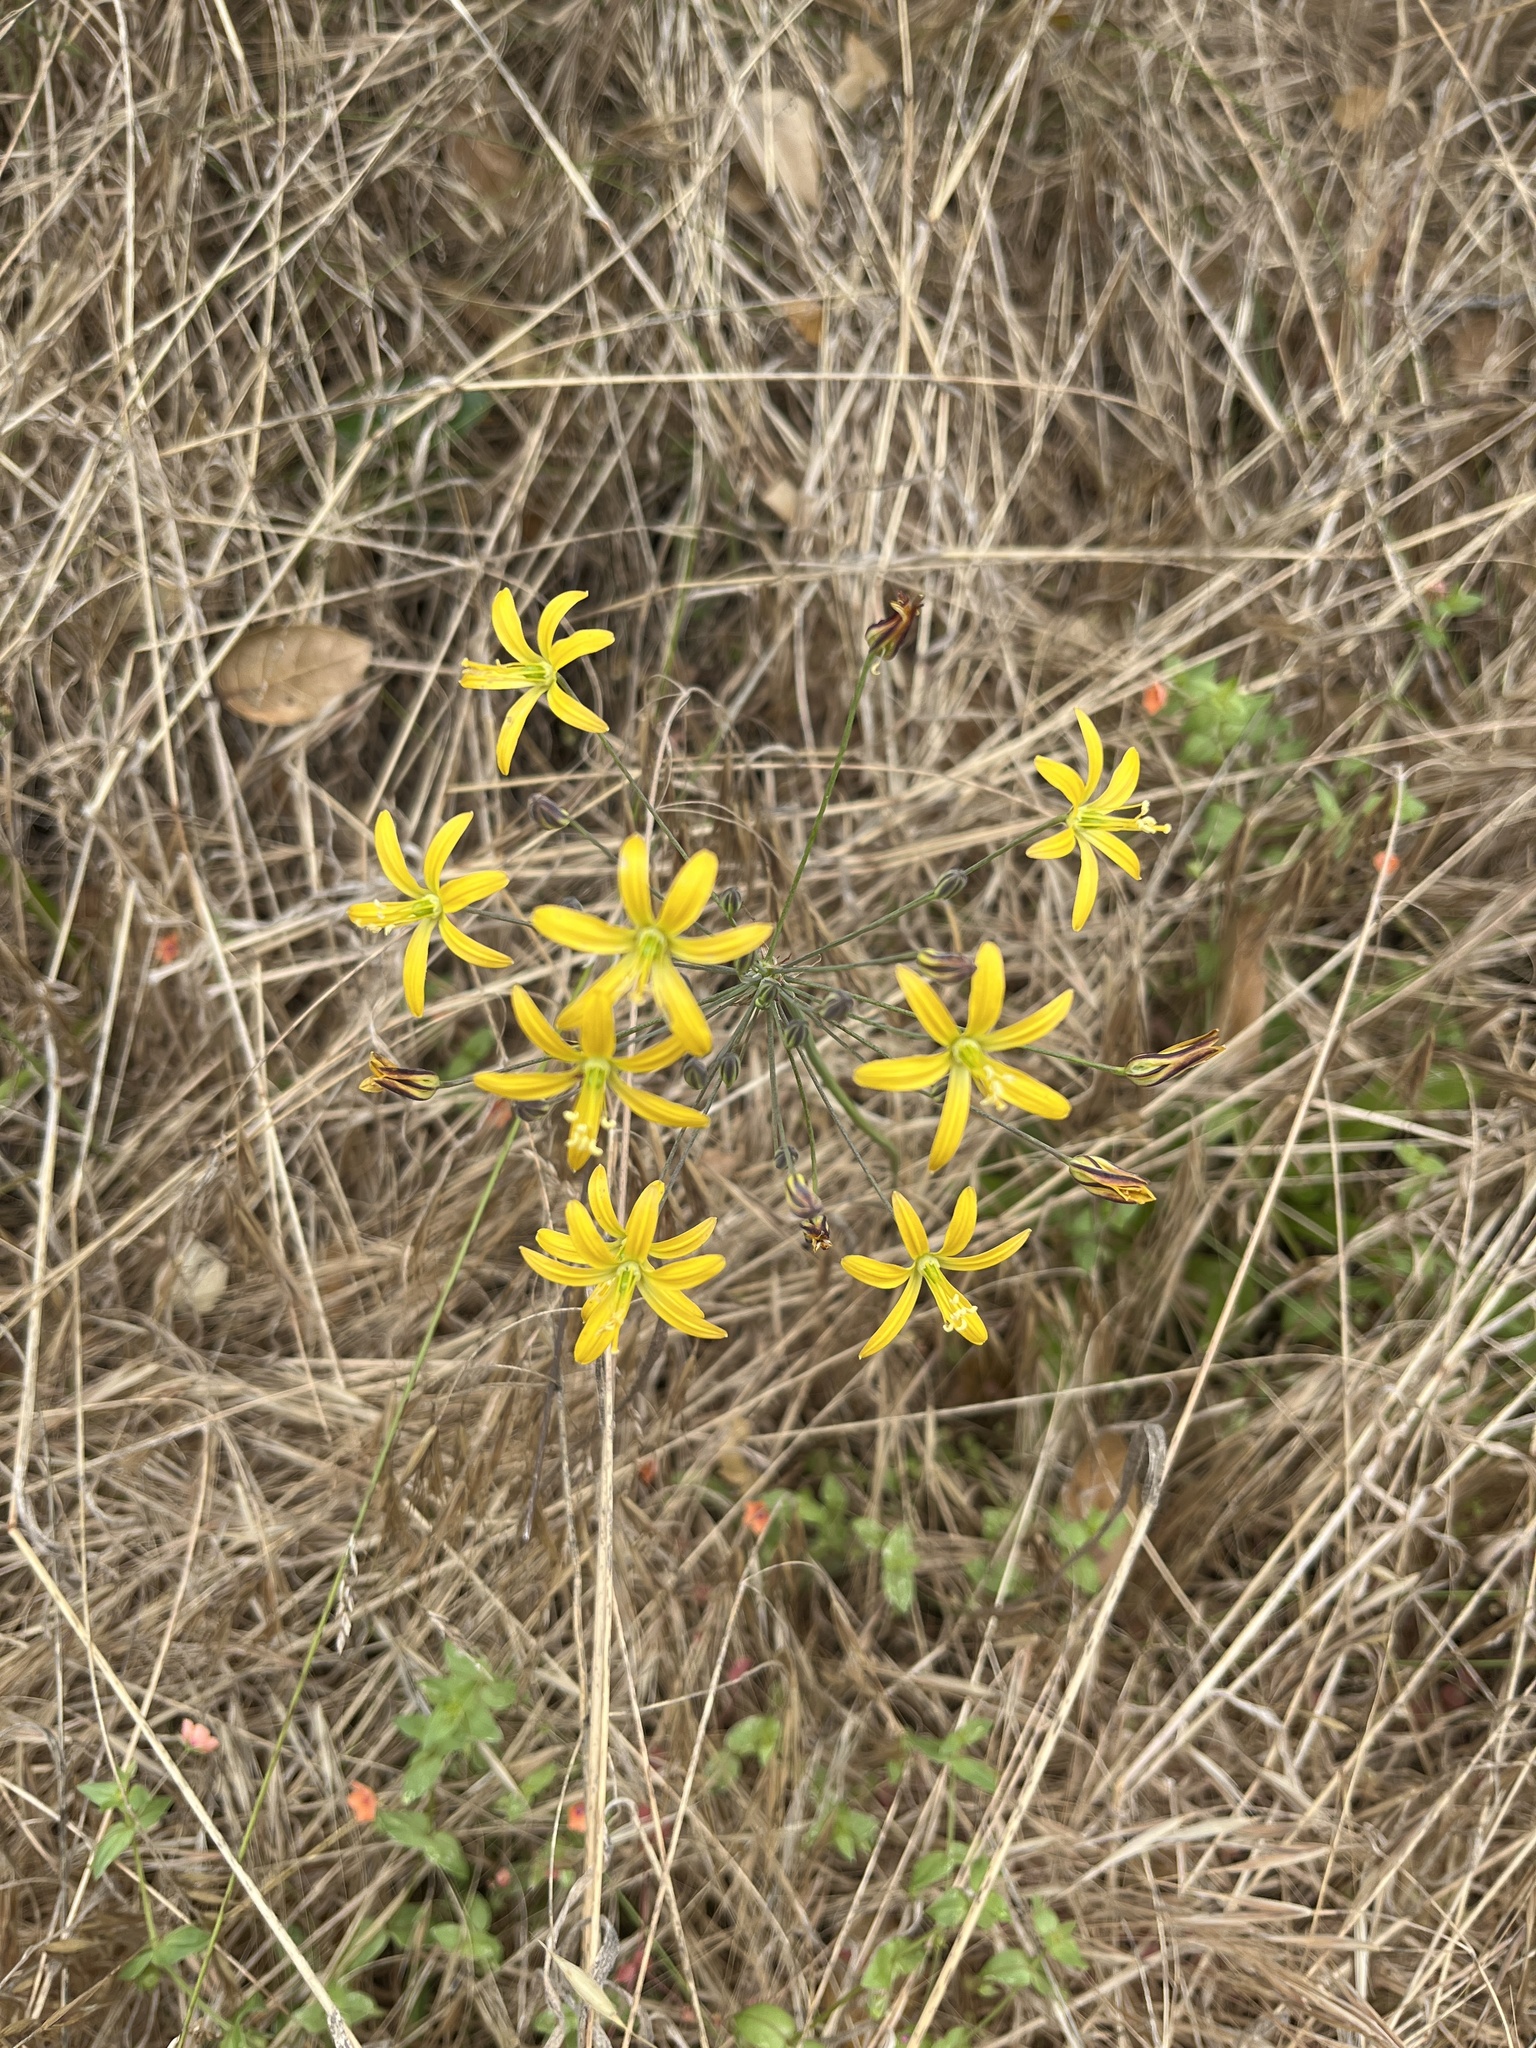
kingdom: Plantae
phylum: Tracheophyta
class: Liliopsida
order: Asparagales
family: Asparagaceae
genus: Bloomeria
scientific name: Bloomeria crocea
